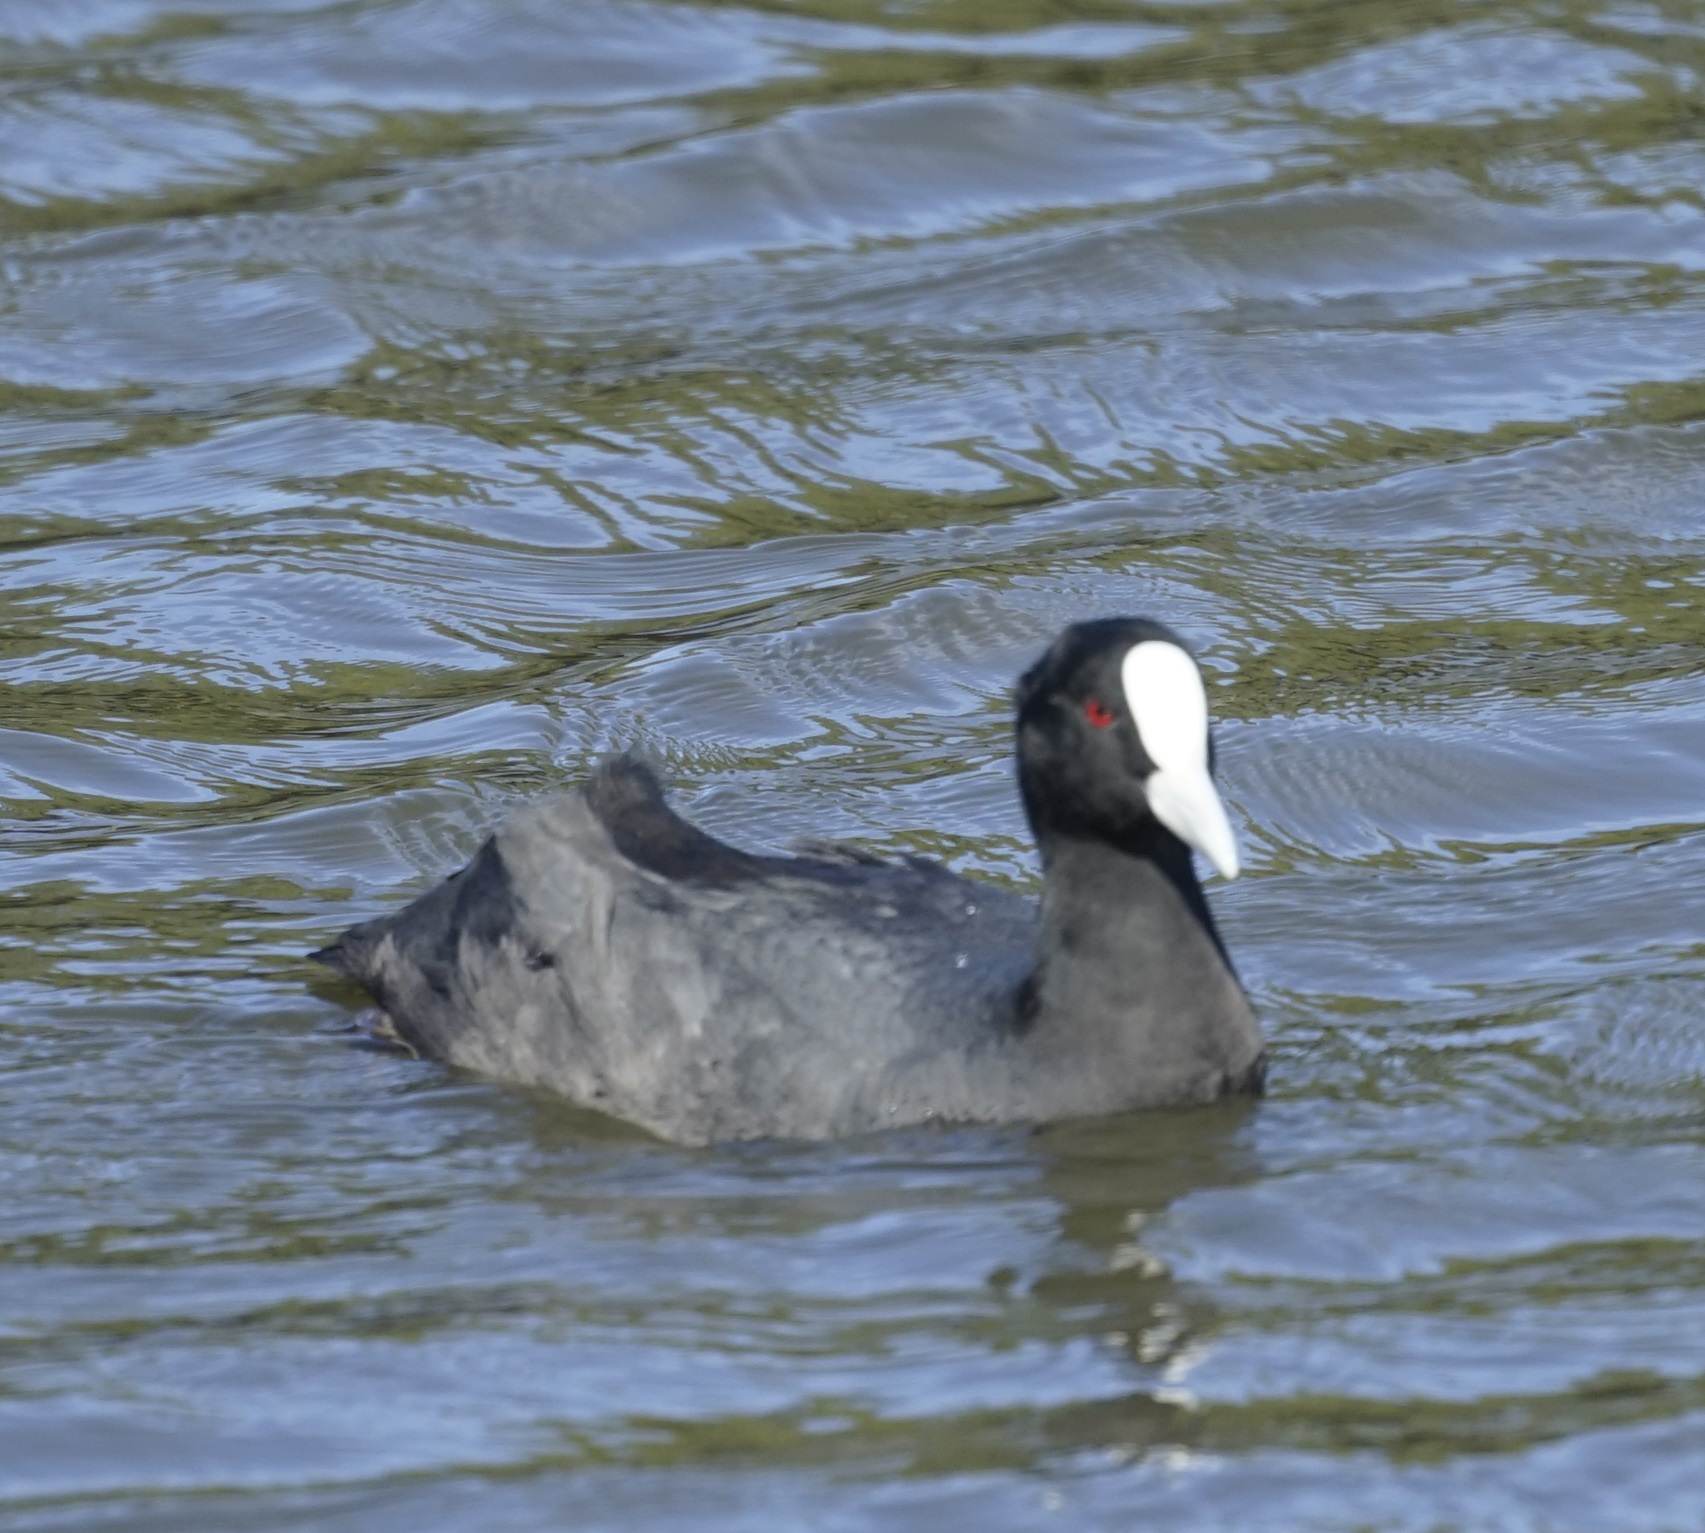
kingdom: Animalia
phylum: Chordata
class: Aves
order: Gruiformes
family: Rallidae
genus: Fulica
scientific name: Fulica atra
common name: Eurasian coot
